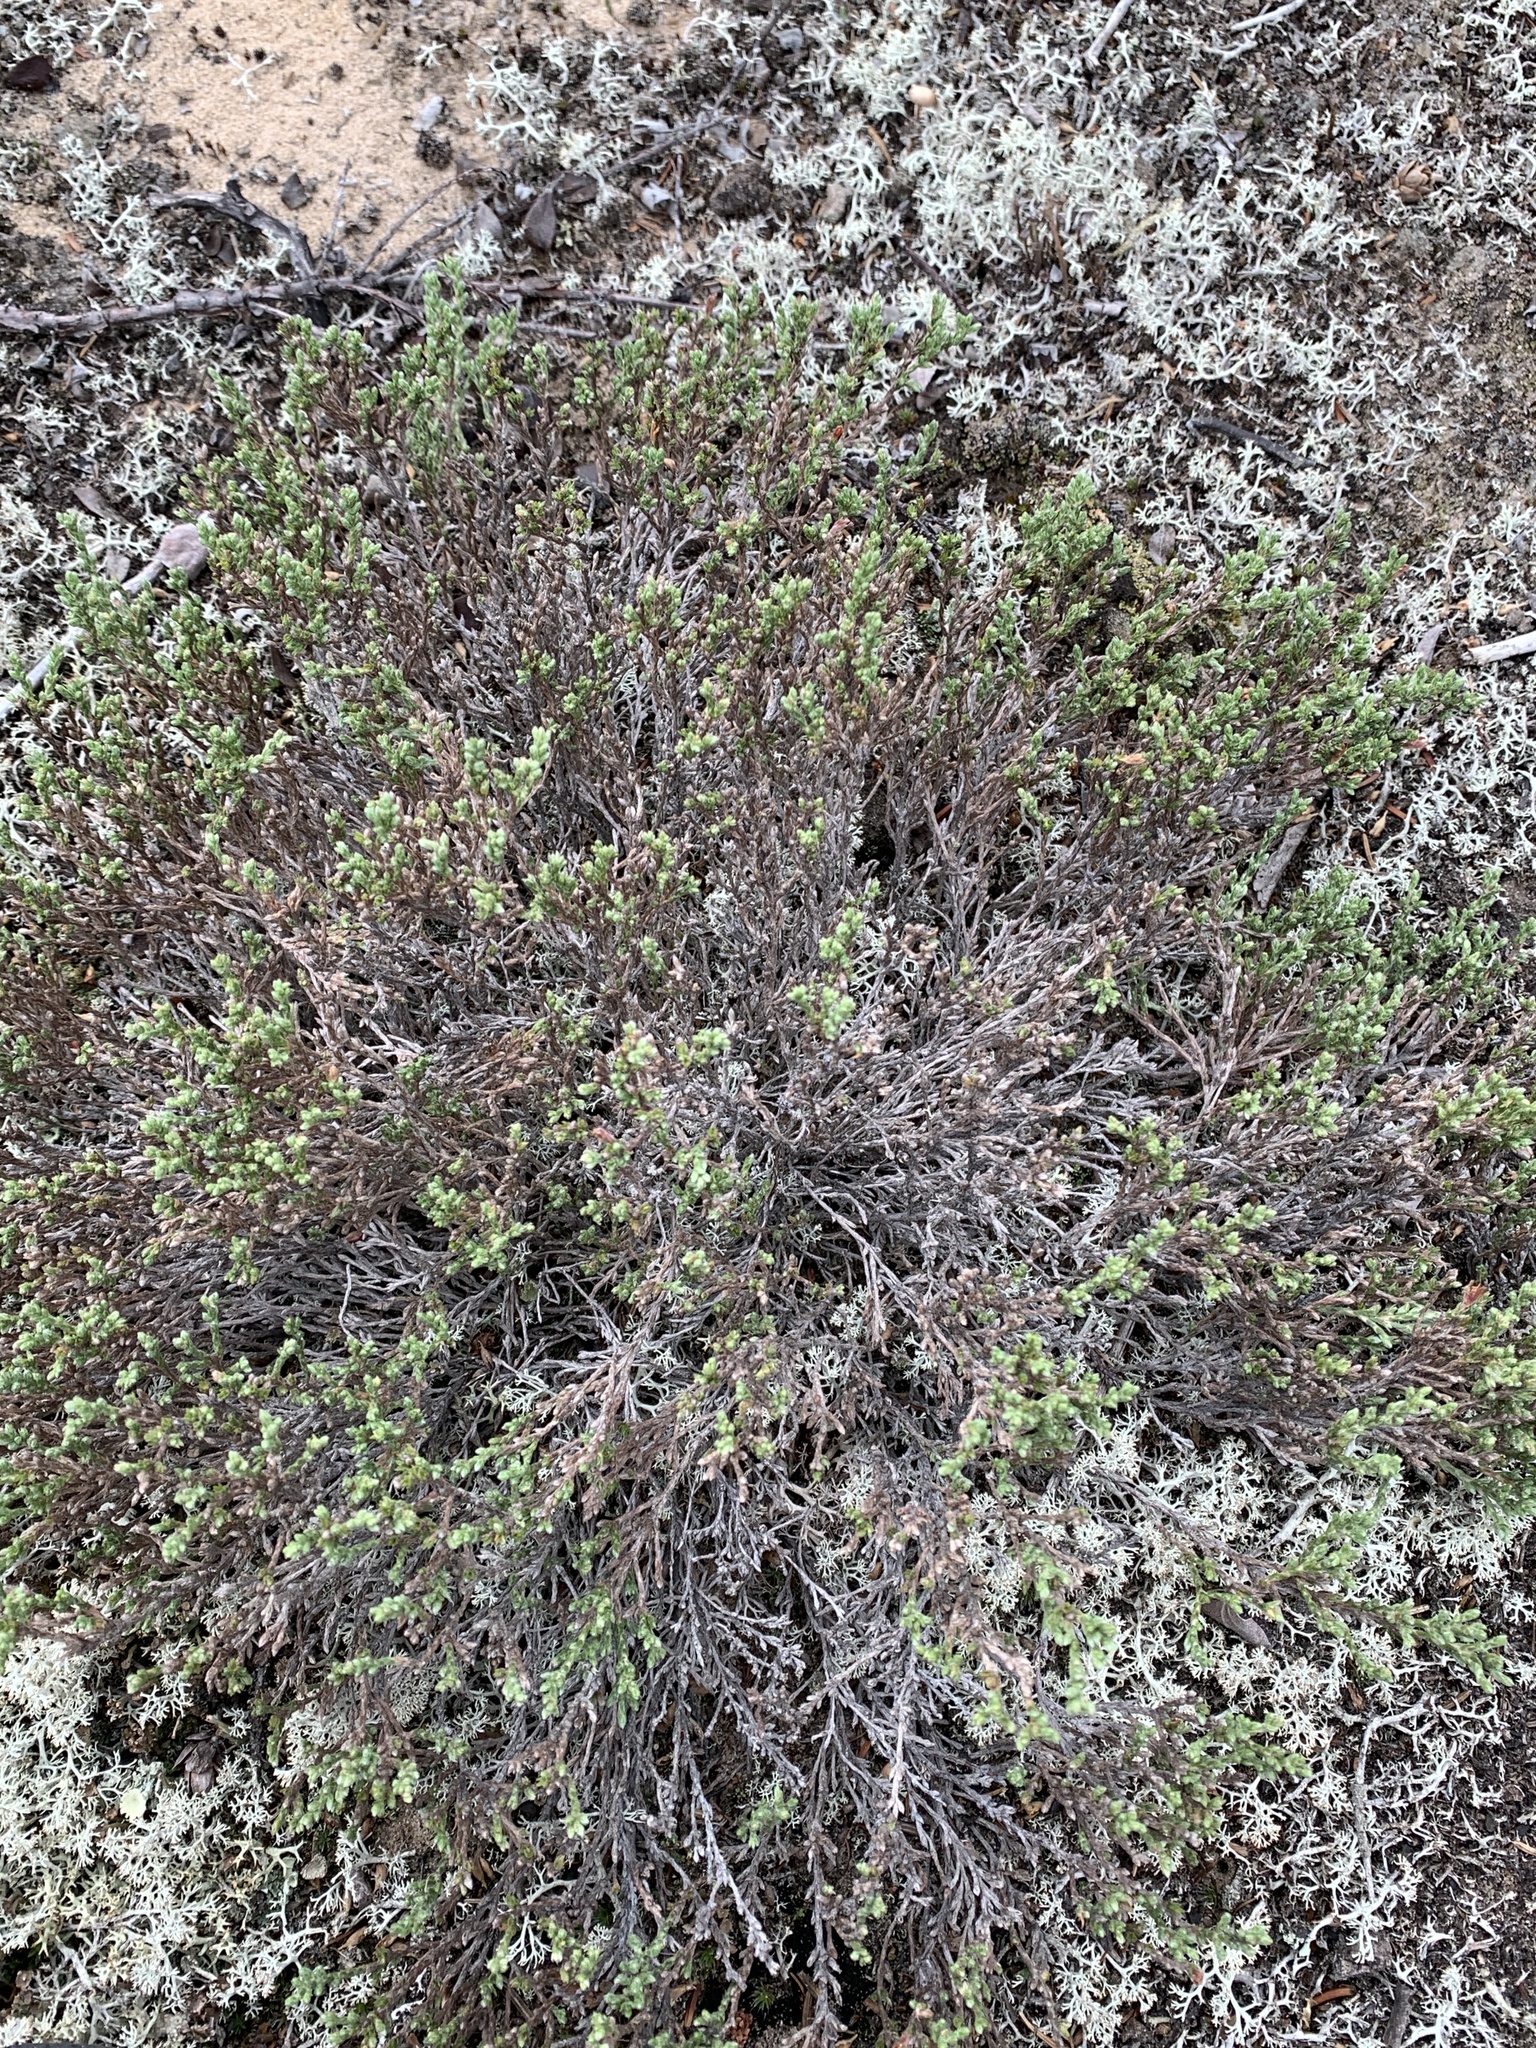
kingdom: Plantae
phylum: Tracheophyta
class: Magnoliopsida
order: Malvales
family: Cistaceae
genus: Hudsonia
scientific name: Hudsonia tomentosa
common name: Beach-heath
